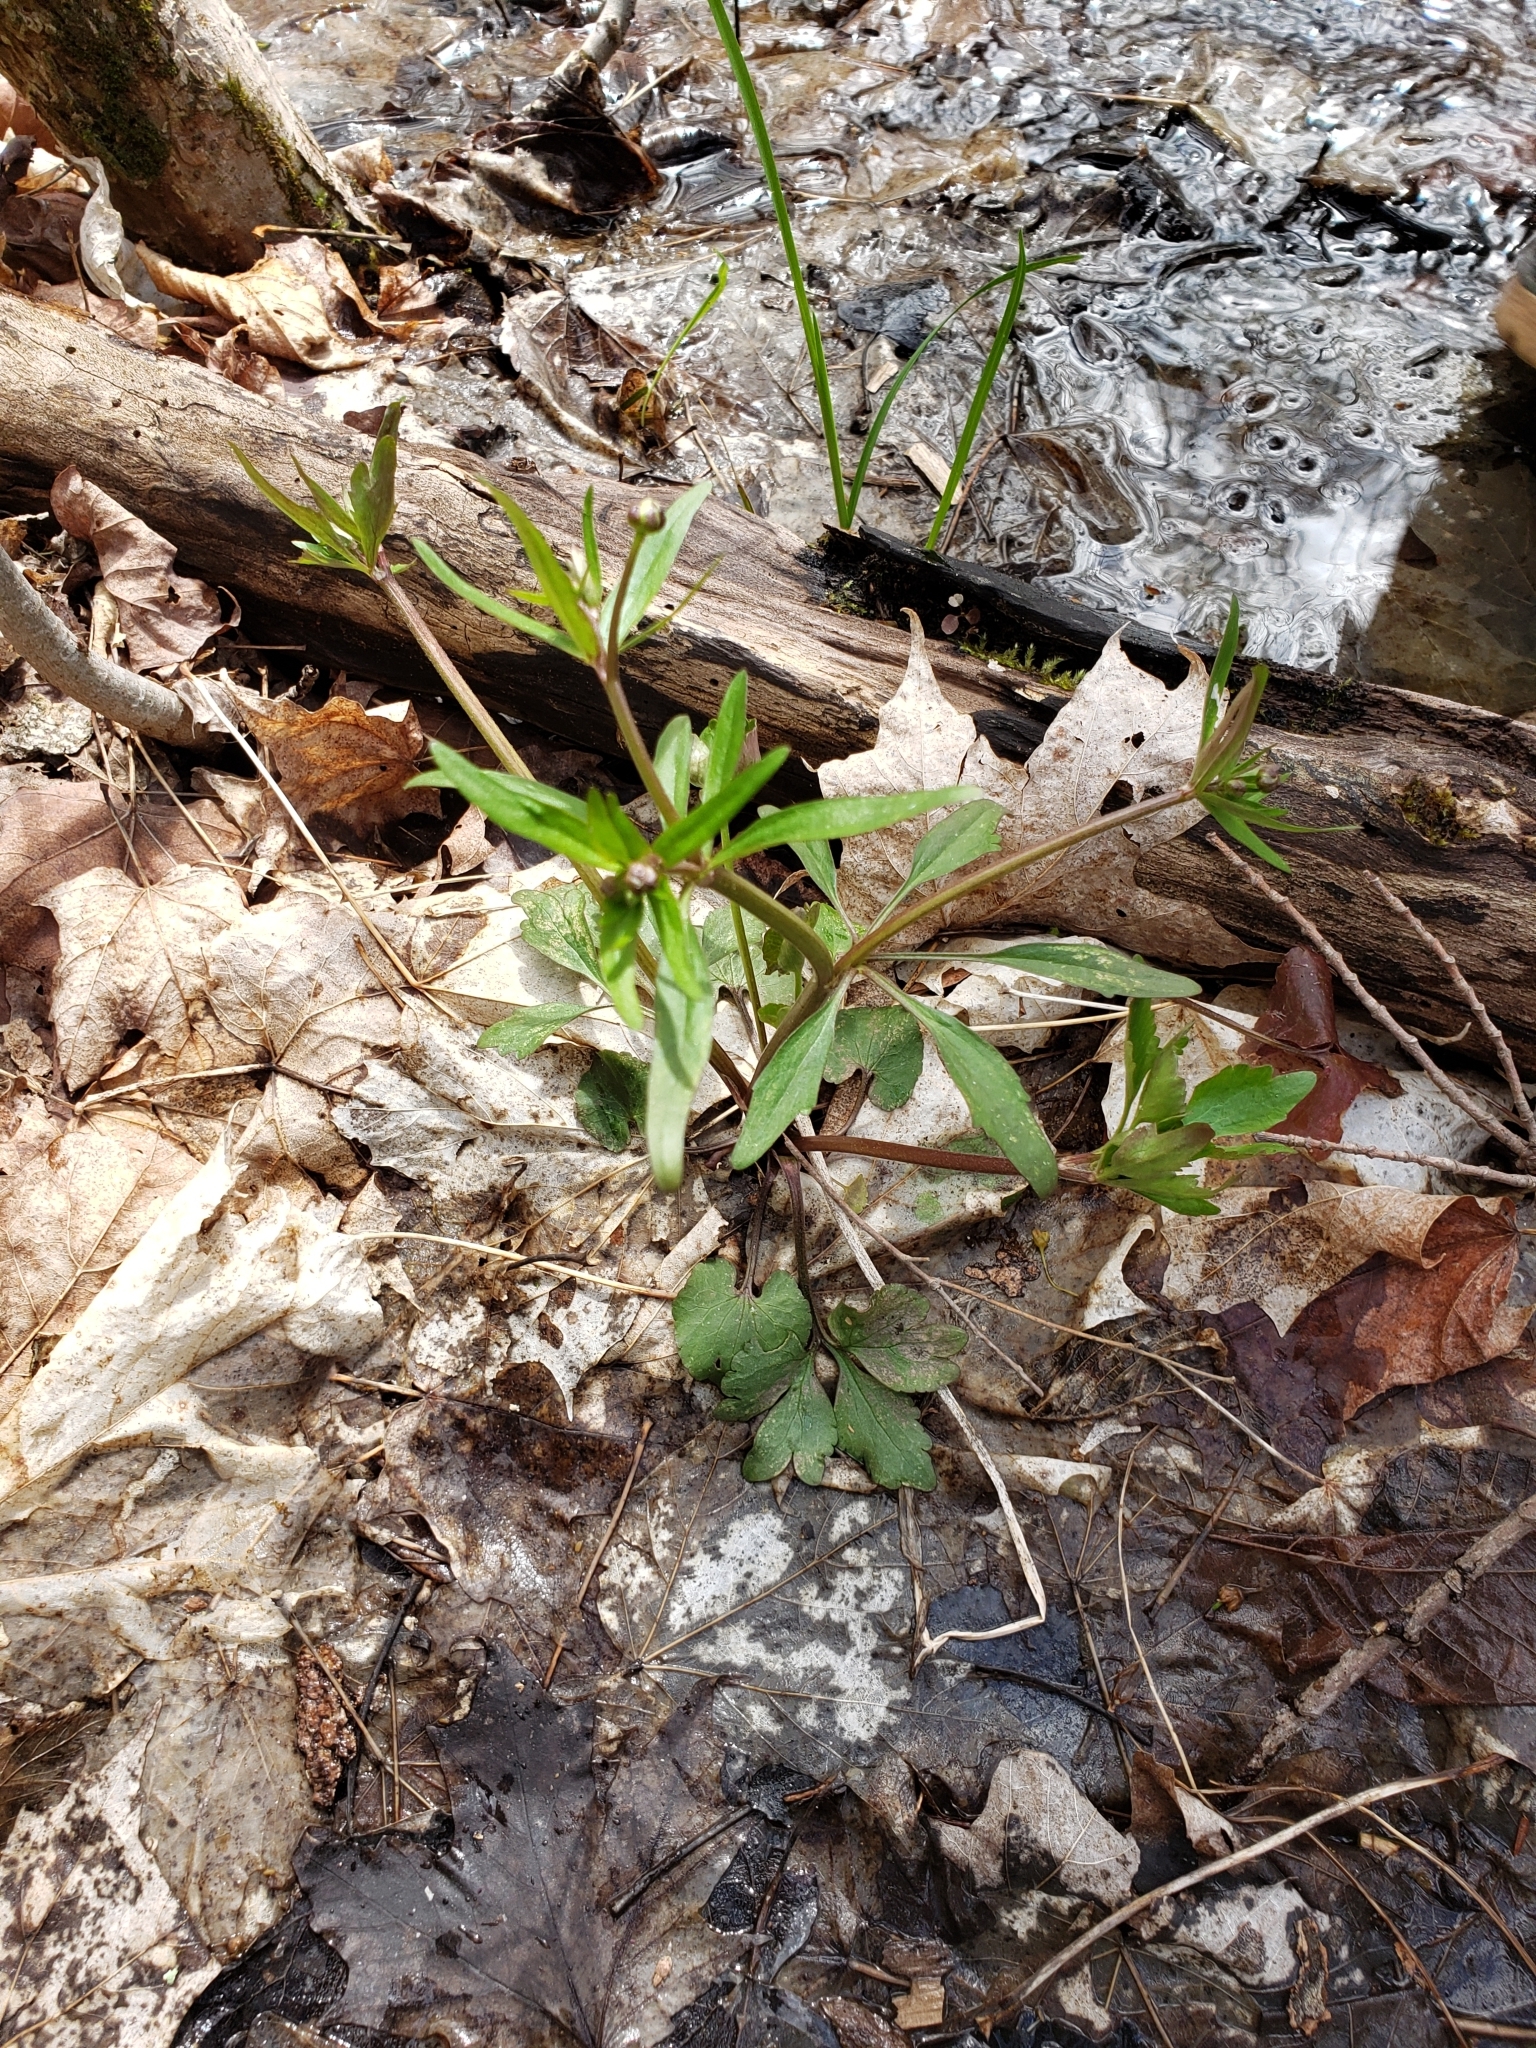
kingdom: Plantae
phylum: Tracheophyta
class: Magnoliopsida
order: Ranunculales
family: Ranunculaceae
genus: Ranunculus
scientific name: Ranunculus abortivus
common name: Early wood buttercup
